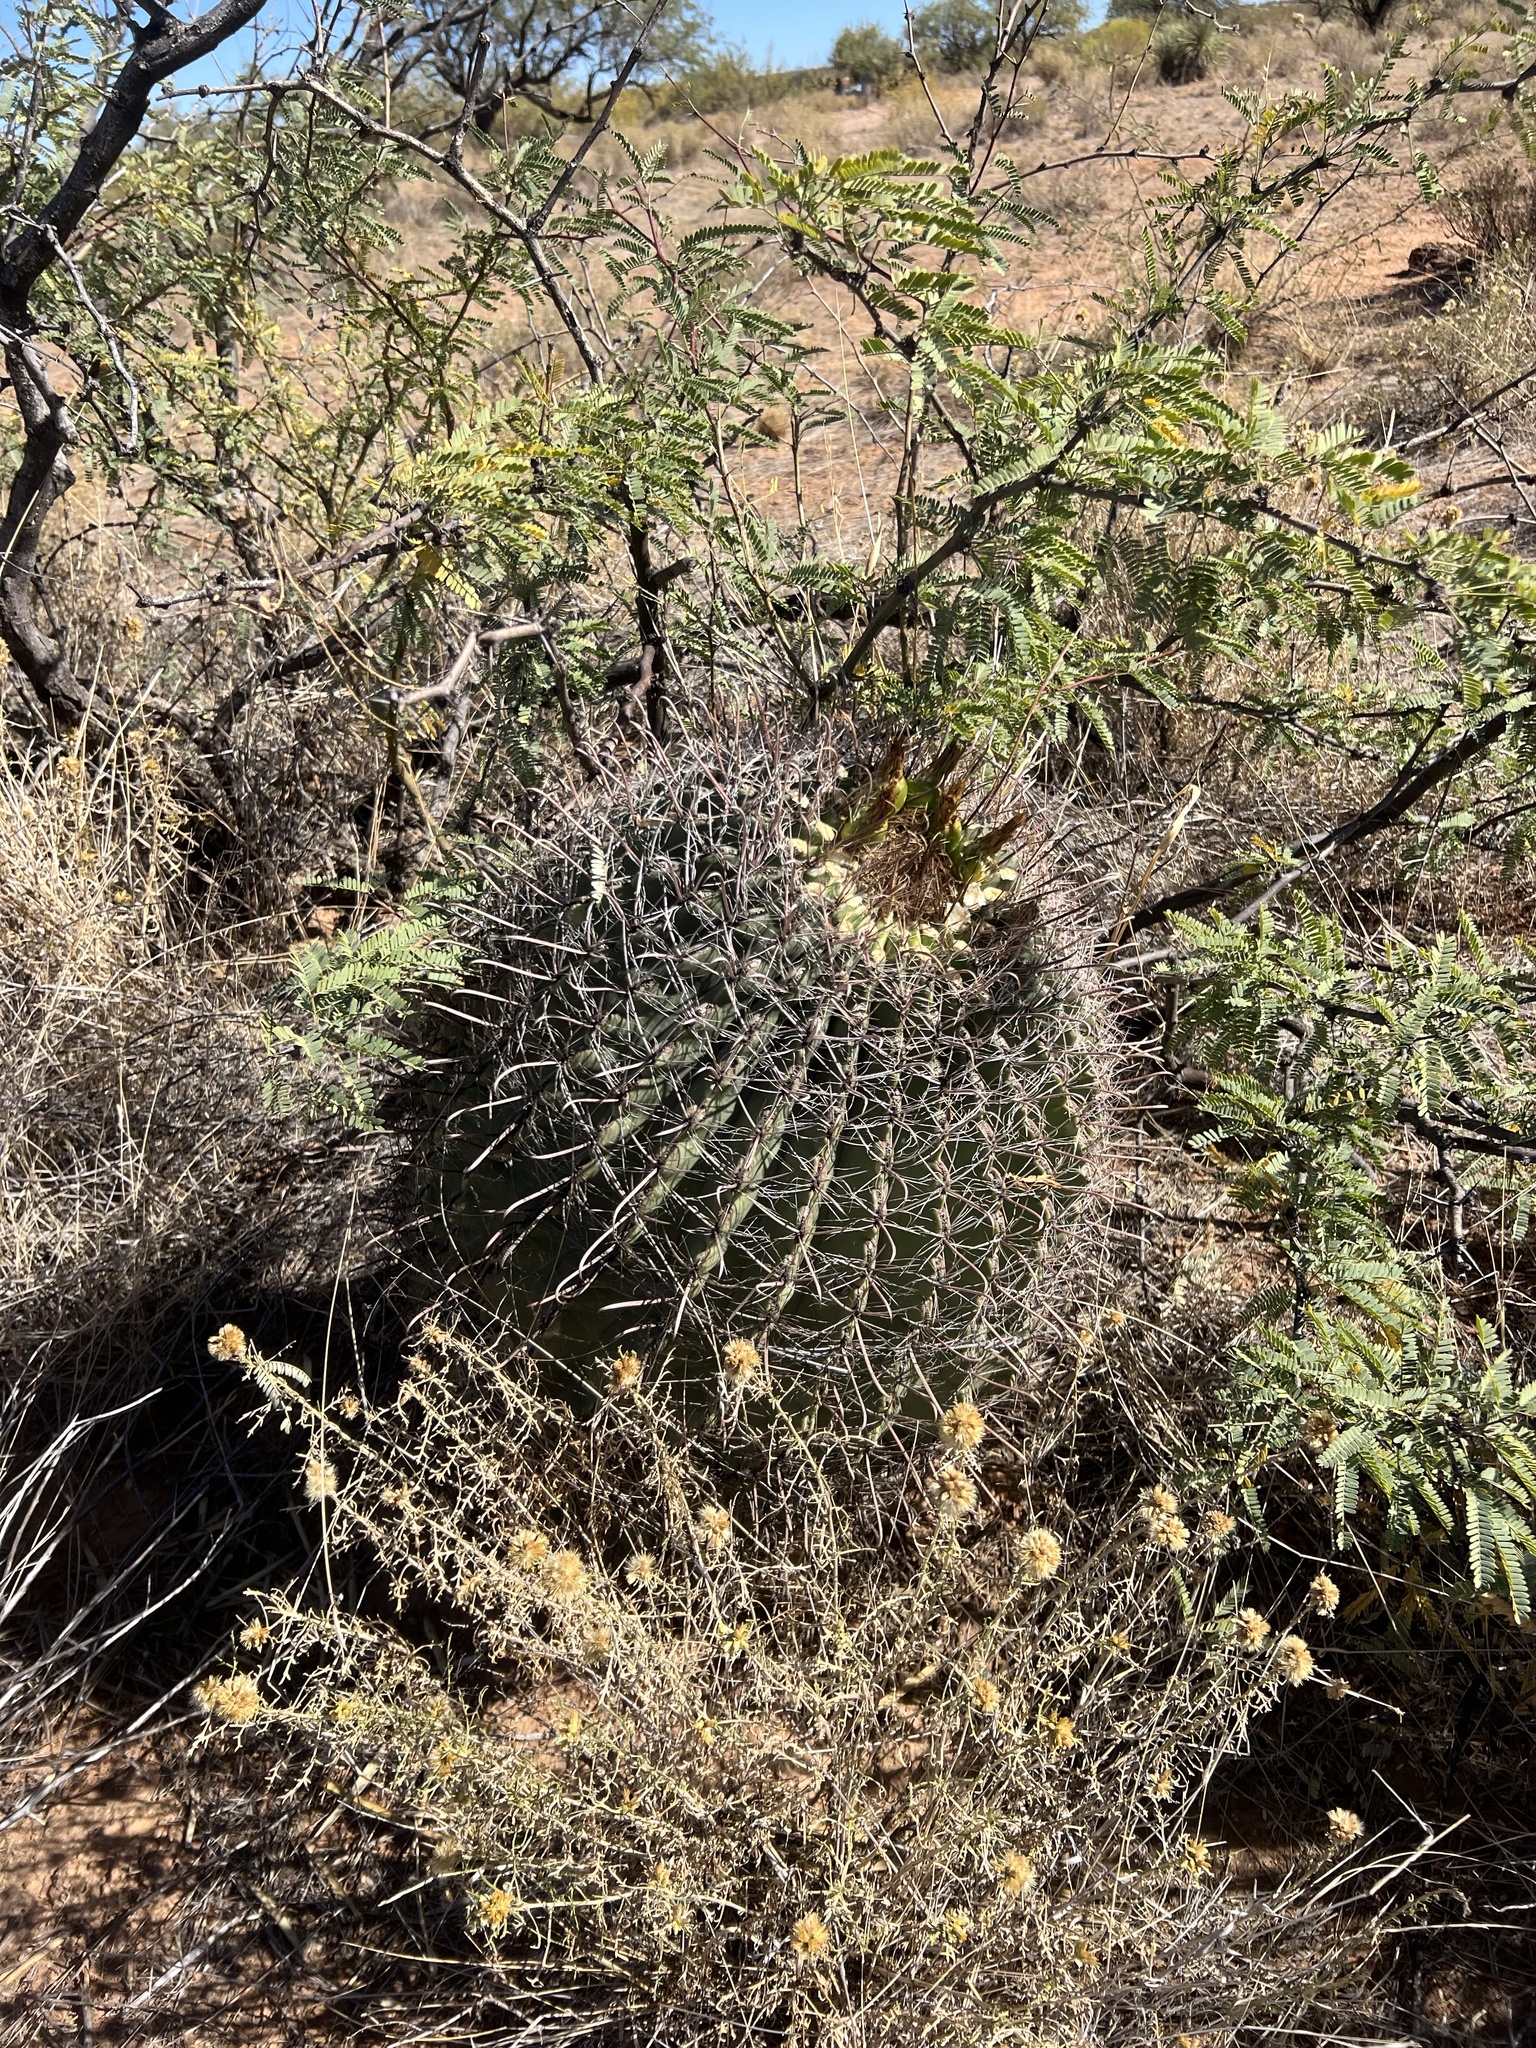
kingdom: Plantae
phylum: Tracheophyta
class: Magnoliopsida
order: Caryophyllales
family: Cactaceae
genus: Ferocactus
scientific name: Ferocactus wislizeni
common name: Candy barrel cactus
